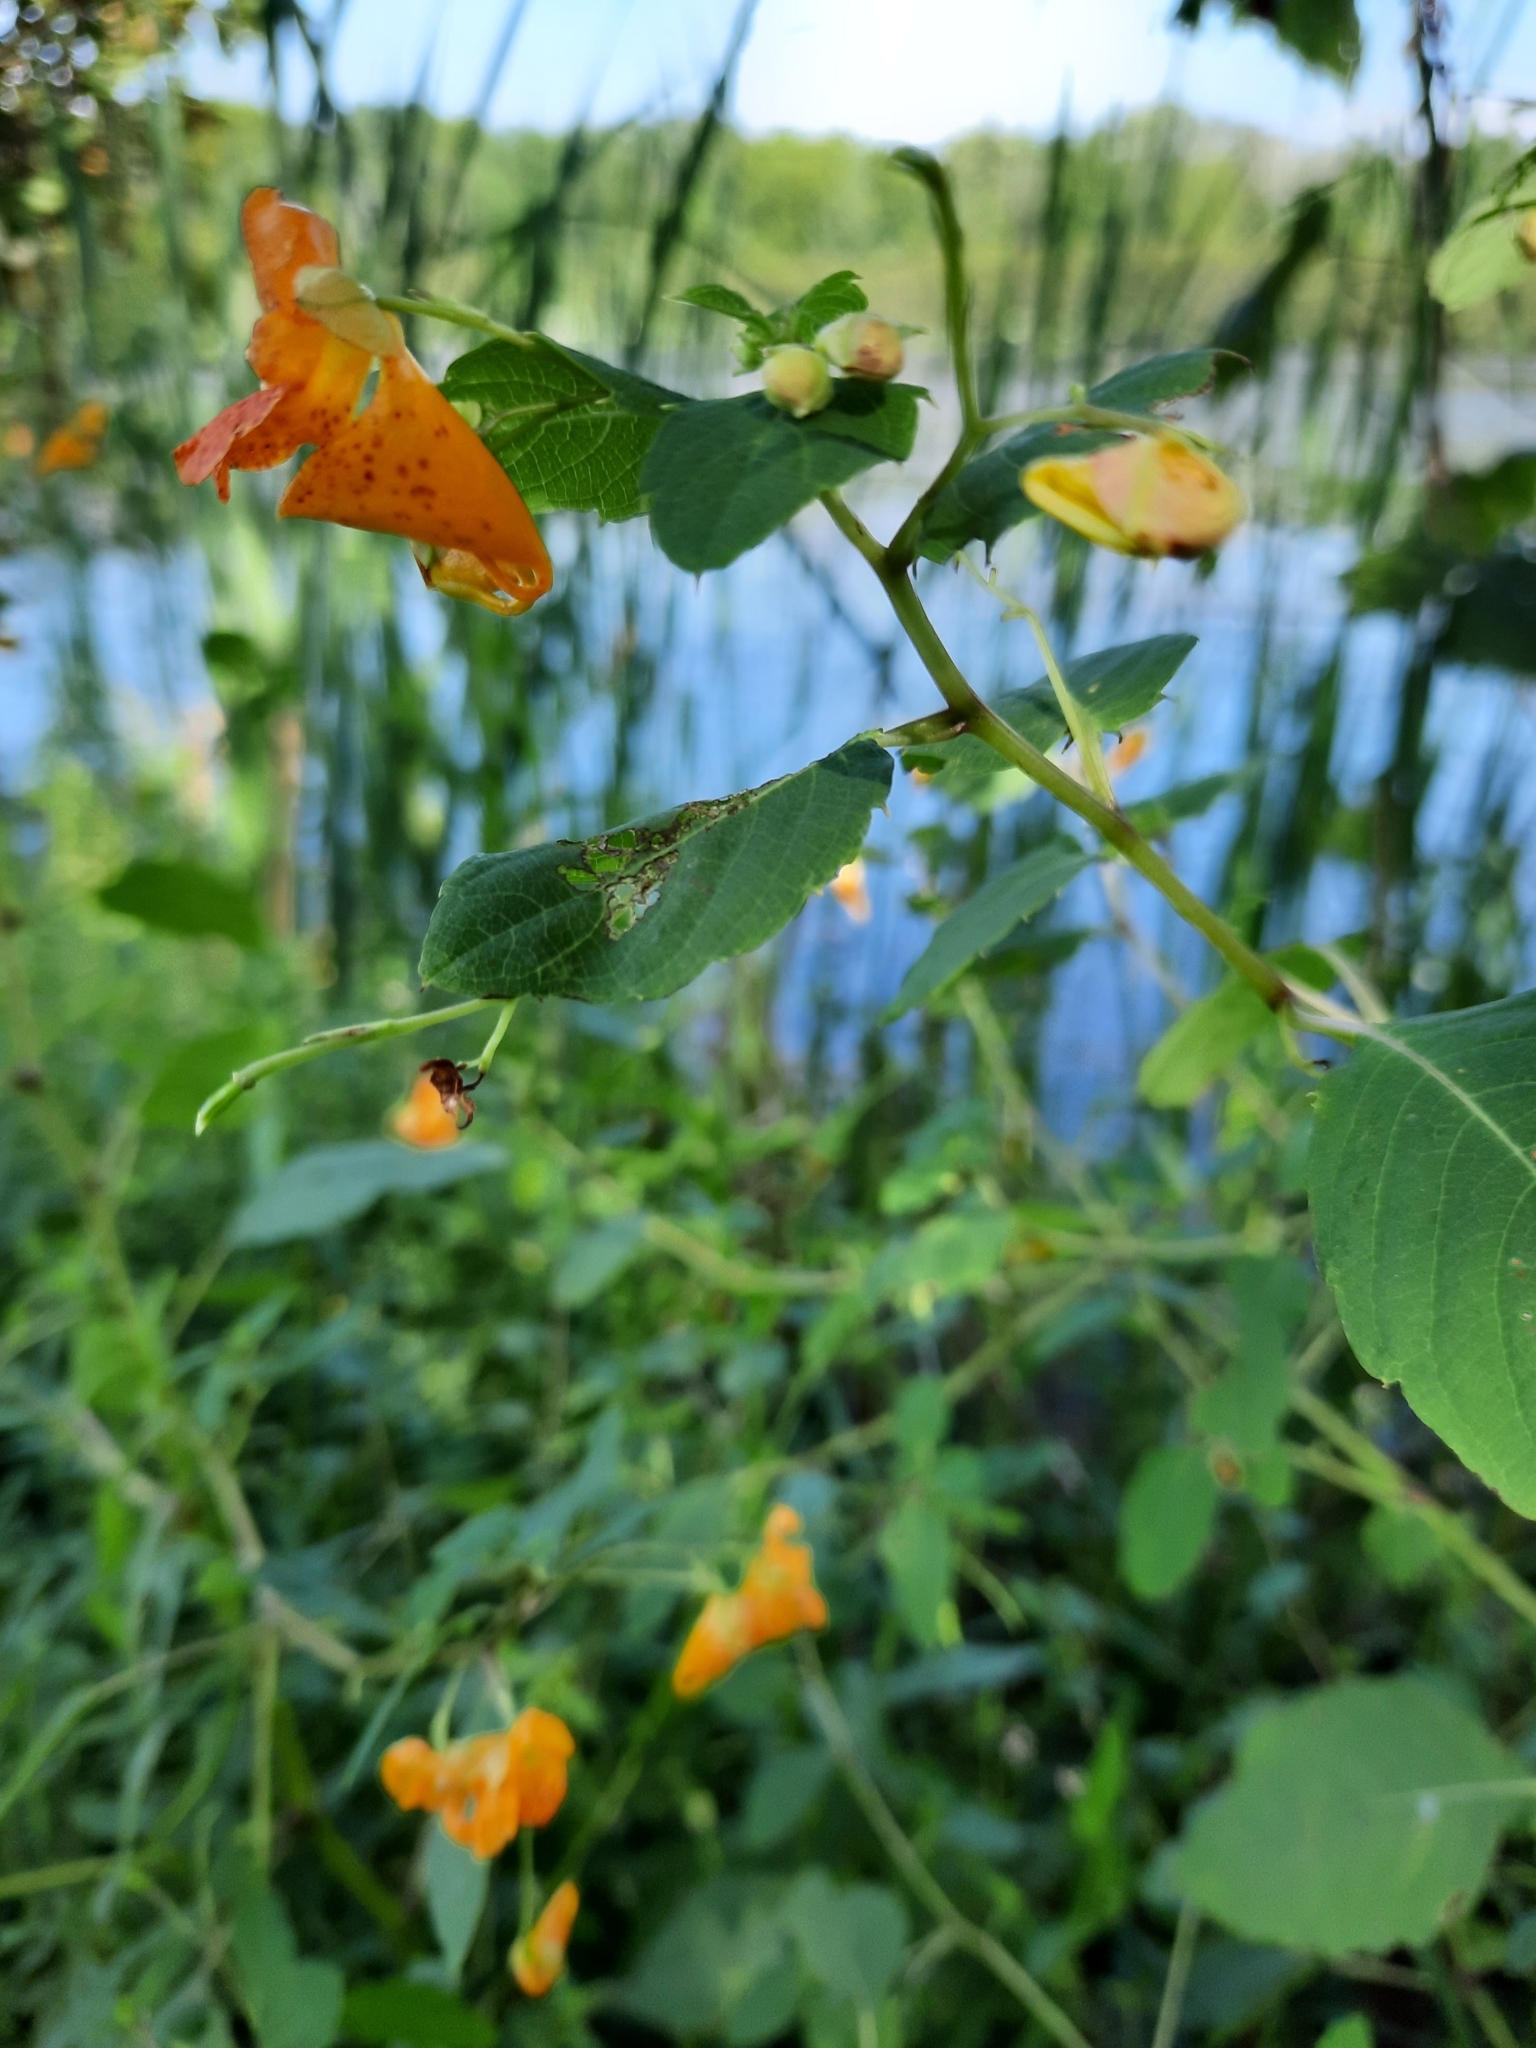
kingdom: Plantae
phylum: Tracheophyta
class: Magnoliopsida
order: Ericales
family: Balsaminaceae
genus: Impatiens
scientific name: Impatiens capensis
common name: Orange balsam
